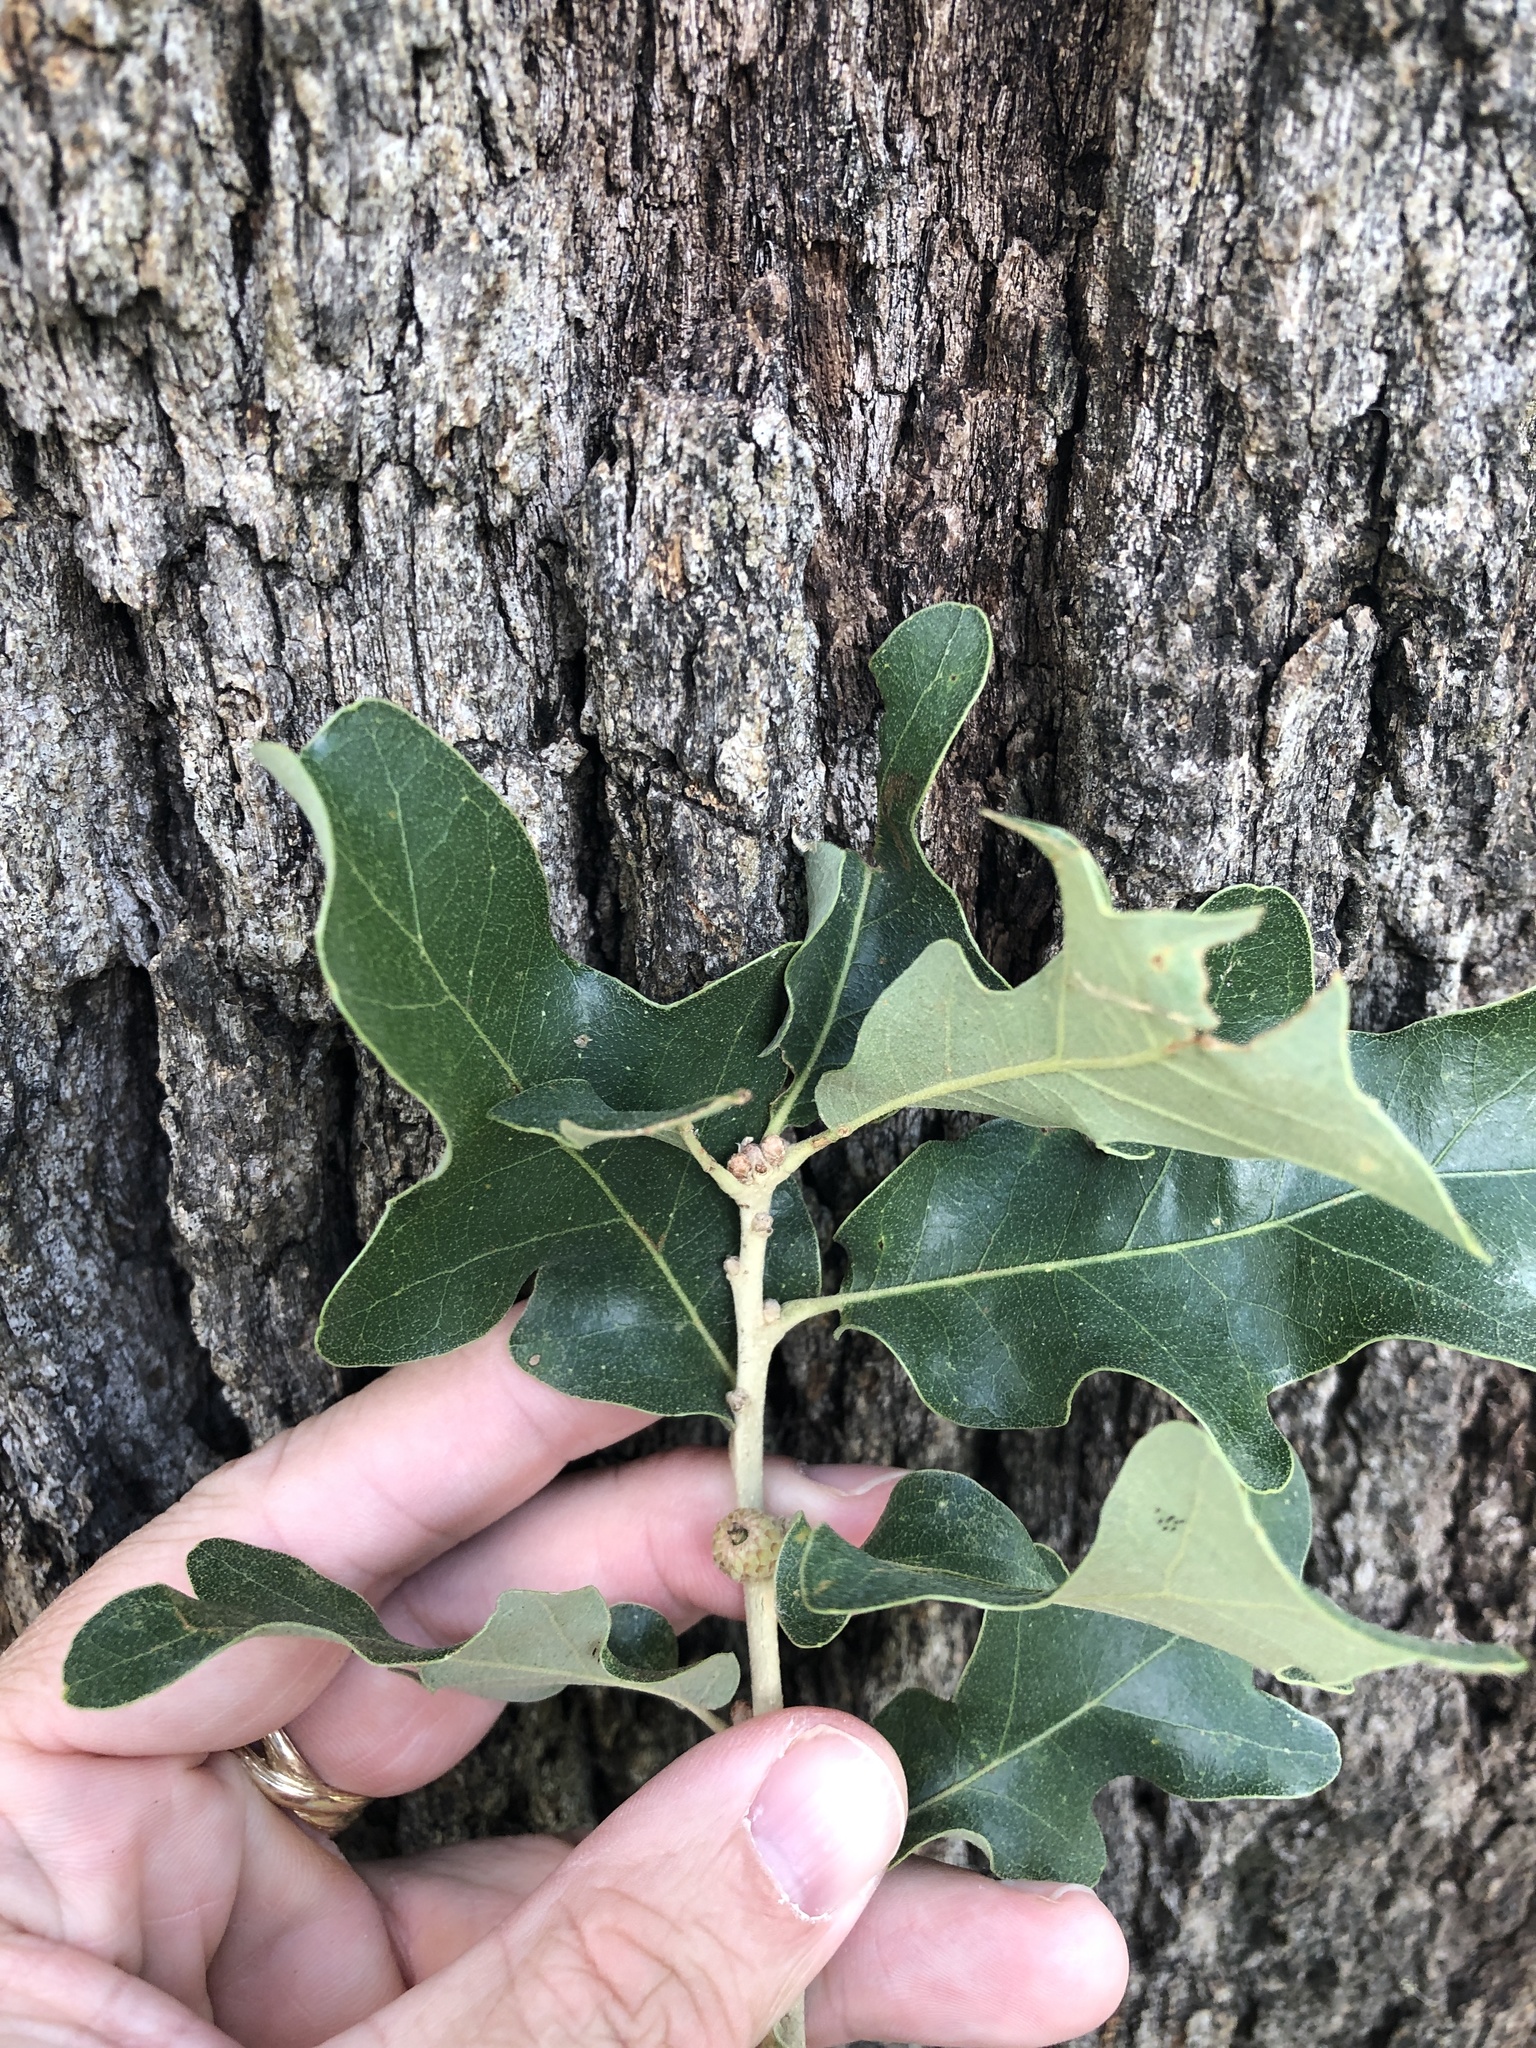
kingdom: Plantae
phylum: Tracheophyta
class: Magnoliopsida
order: Fagales
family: Fagaceae
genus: Quercus
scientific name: Quercus stellata
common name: Post oak
